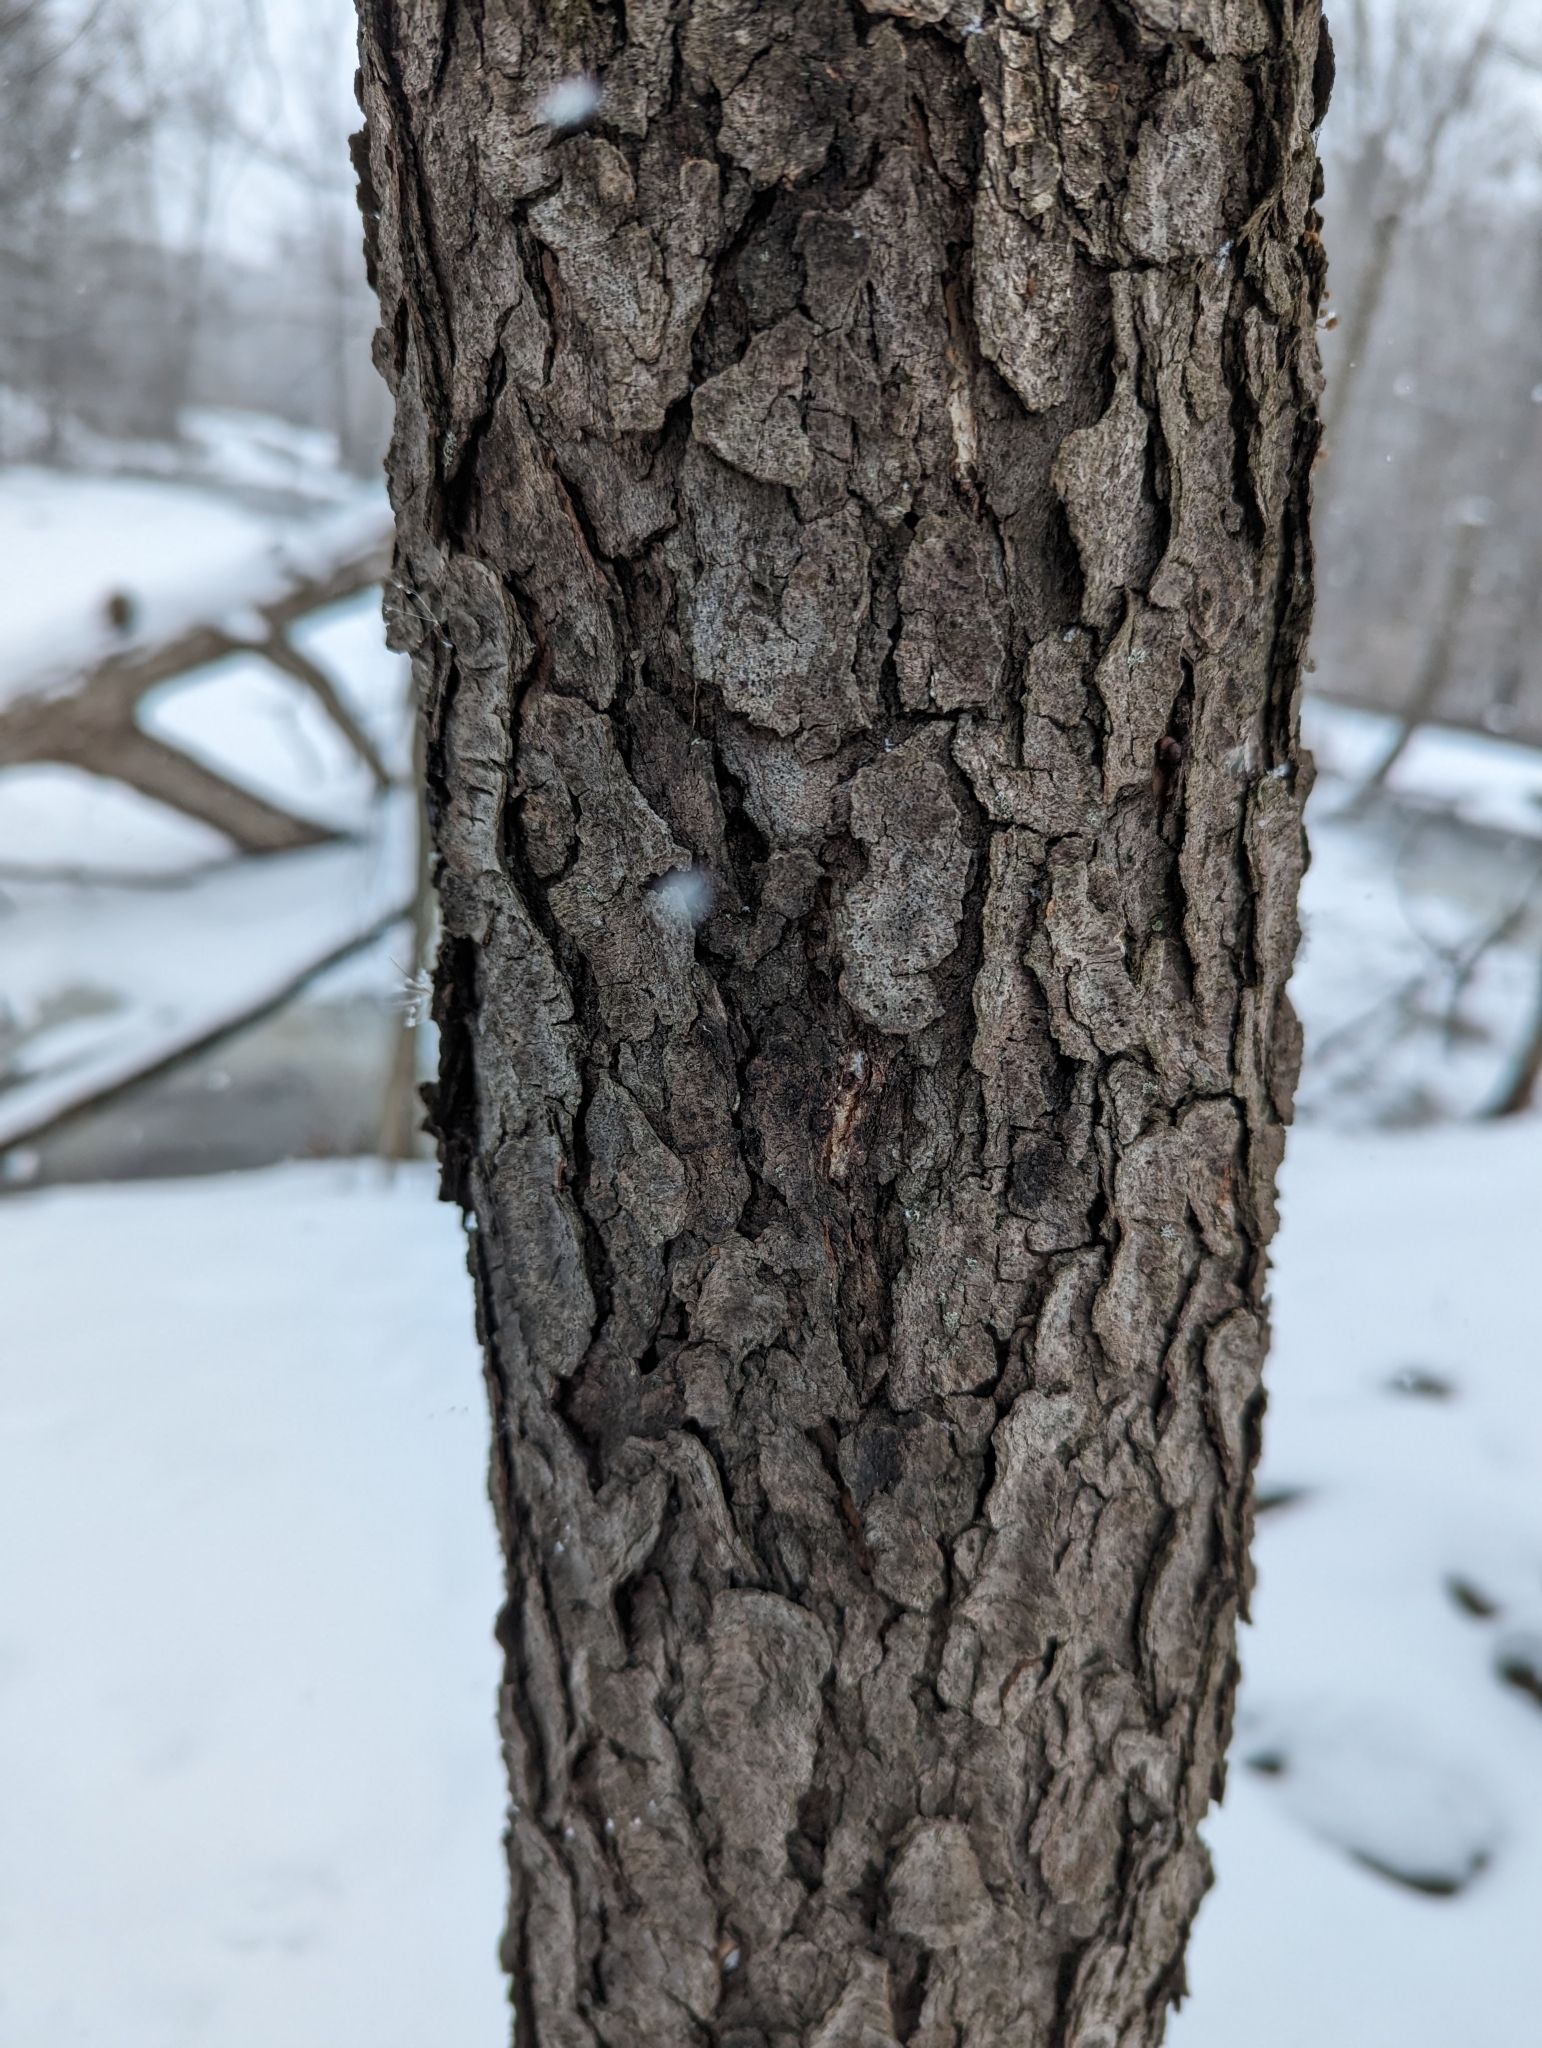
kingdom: Plantae
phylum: Tracheophyta
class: Magnoliopsida
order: Rosales
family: Rosaceae
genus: Prunus
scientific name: Prunus serotina
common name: Black cherry
